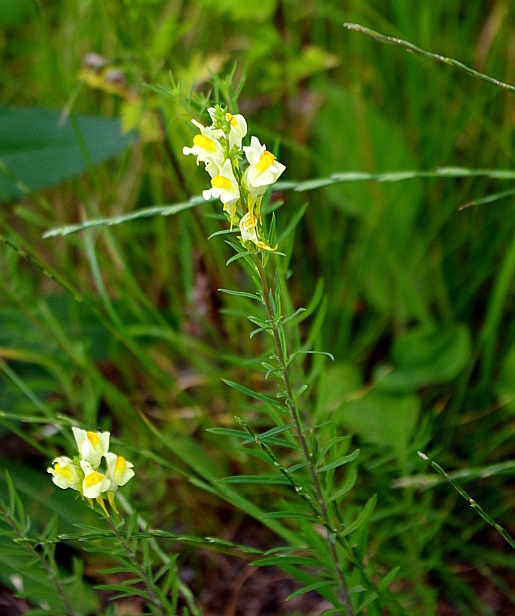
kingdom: Plantae
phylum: Tracheophyta
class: Magnoliopsida
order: Lamiales
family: Plantaginaceae
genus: Linaria
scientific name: Linaria vulgaris
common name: Butter and eggs
